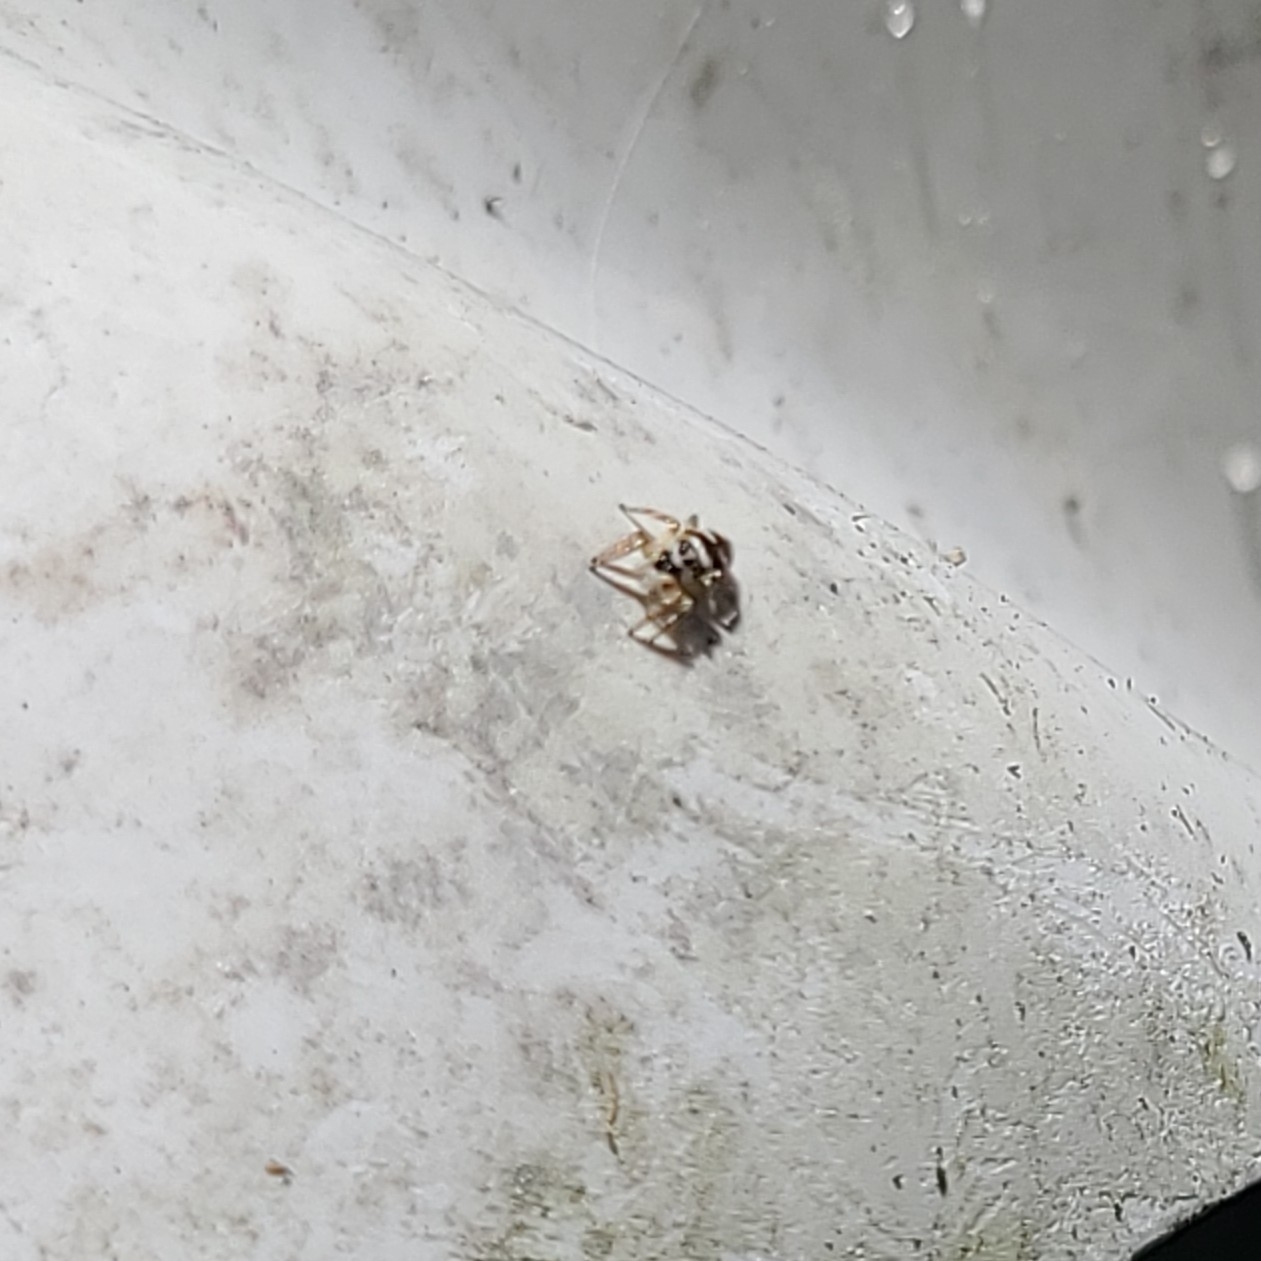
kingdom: Animalia
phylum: Arthropoda
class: Arachnida
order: Araneae
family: Salticidae
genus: Salticus
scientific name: Salticus scenicus
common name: Zebra jumper
